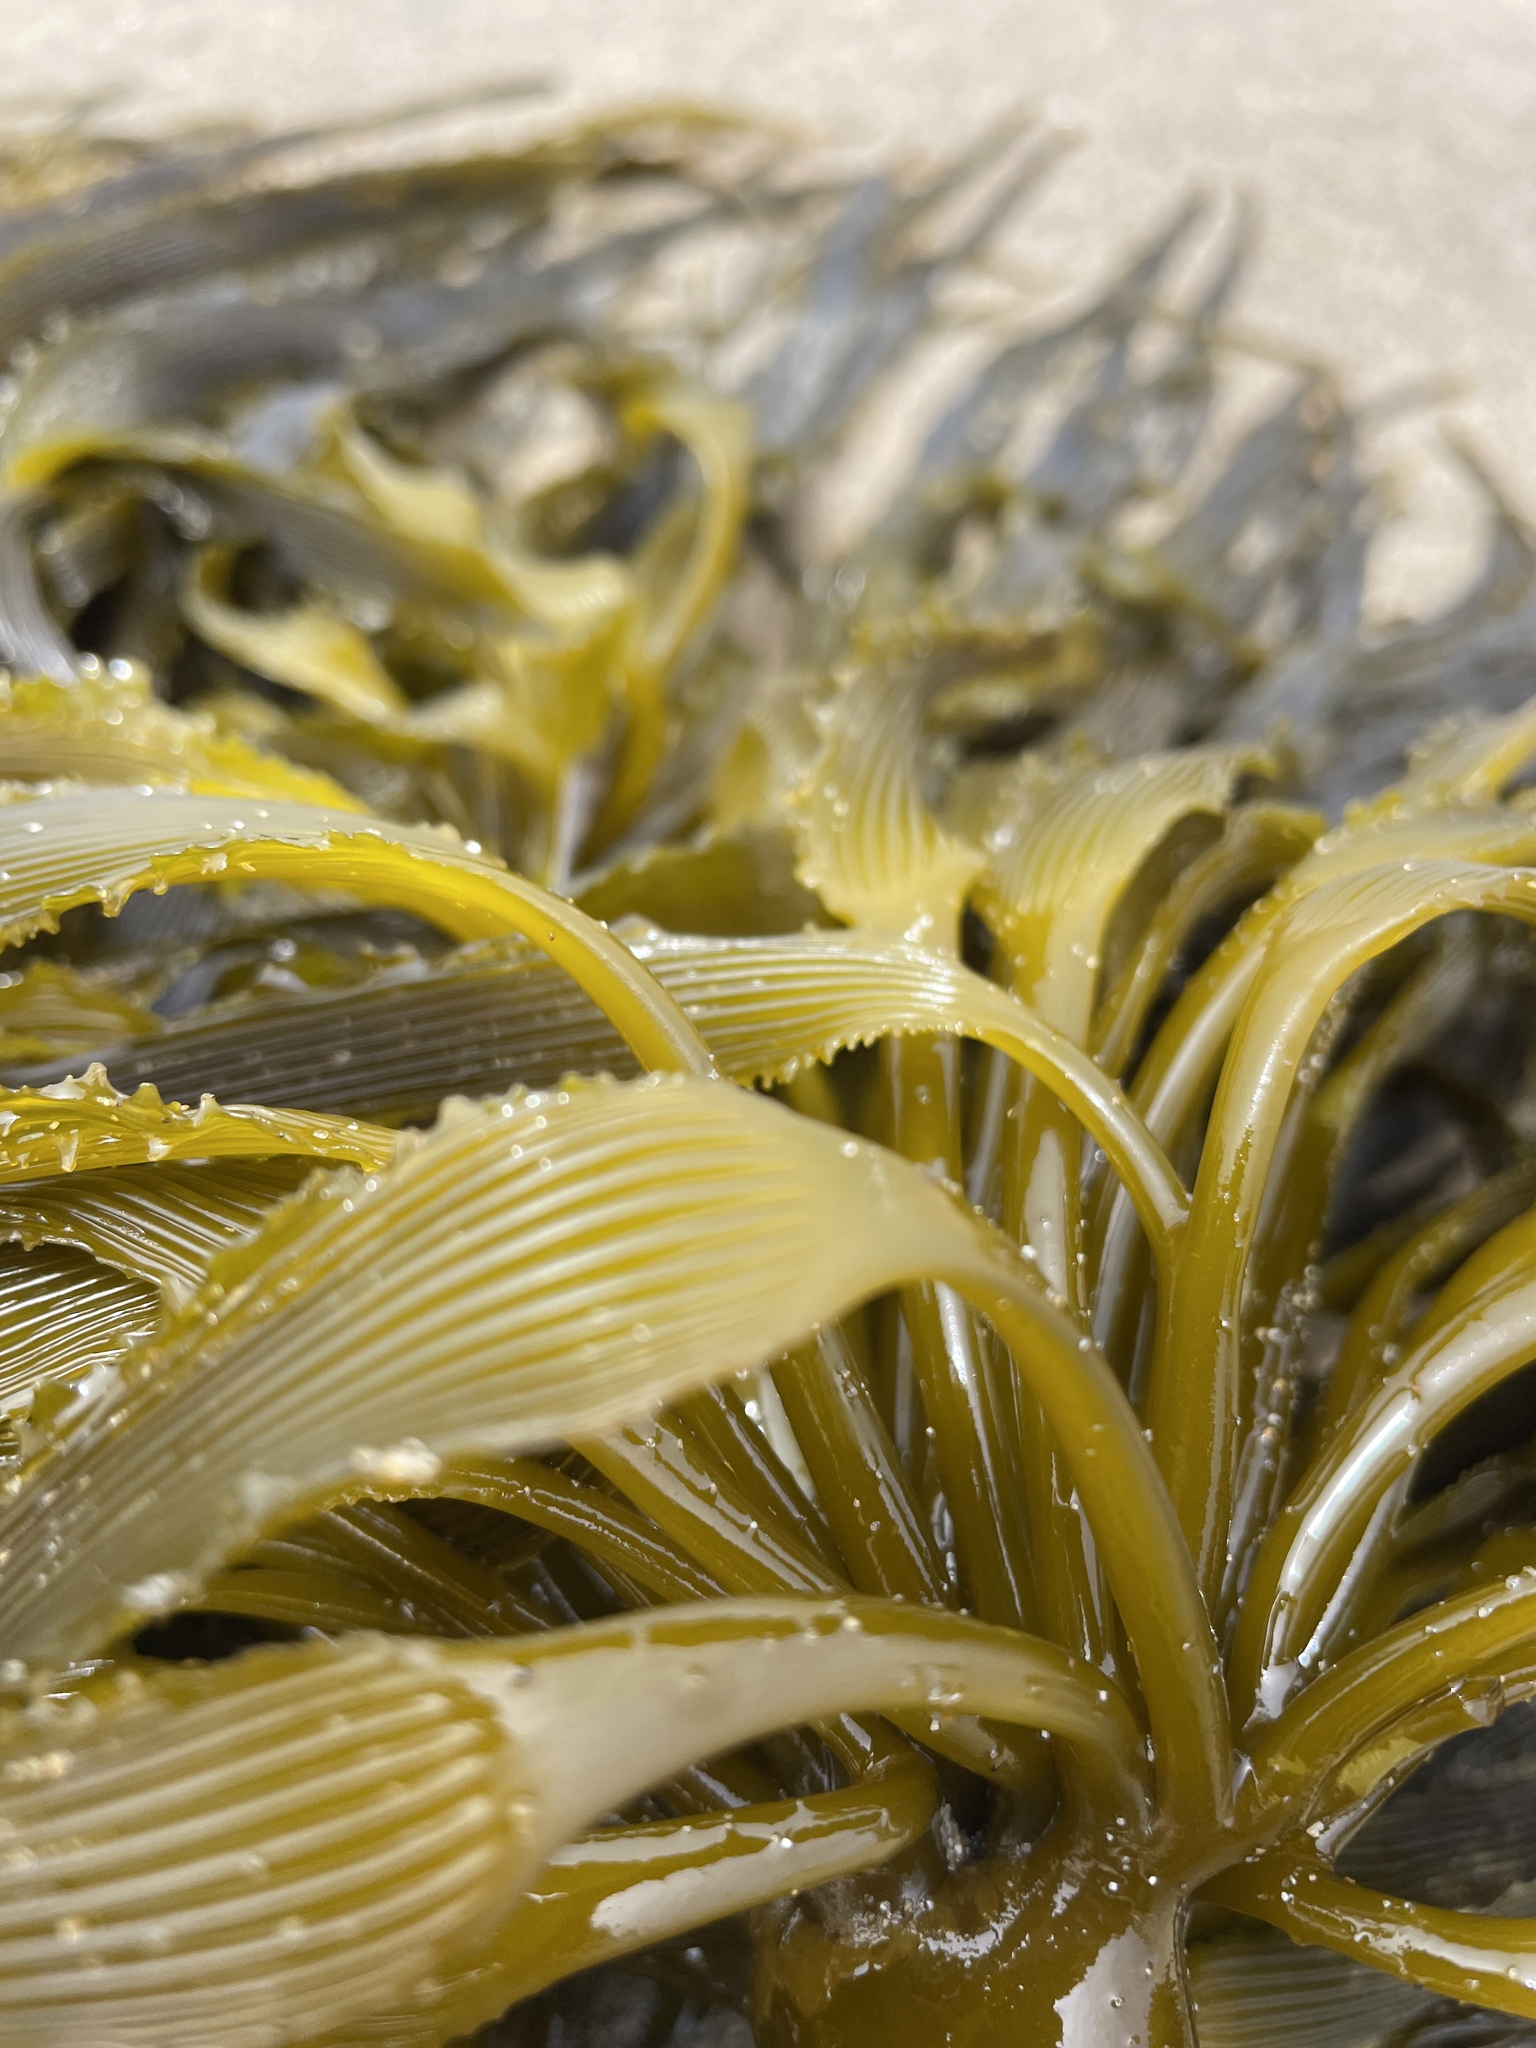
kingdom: Chromista
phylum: Ochrophyta
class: Phaeophyceae
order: Laminariales
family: Laminariaceae
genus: Postelsia
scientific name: Postelsia palmiformis
